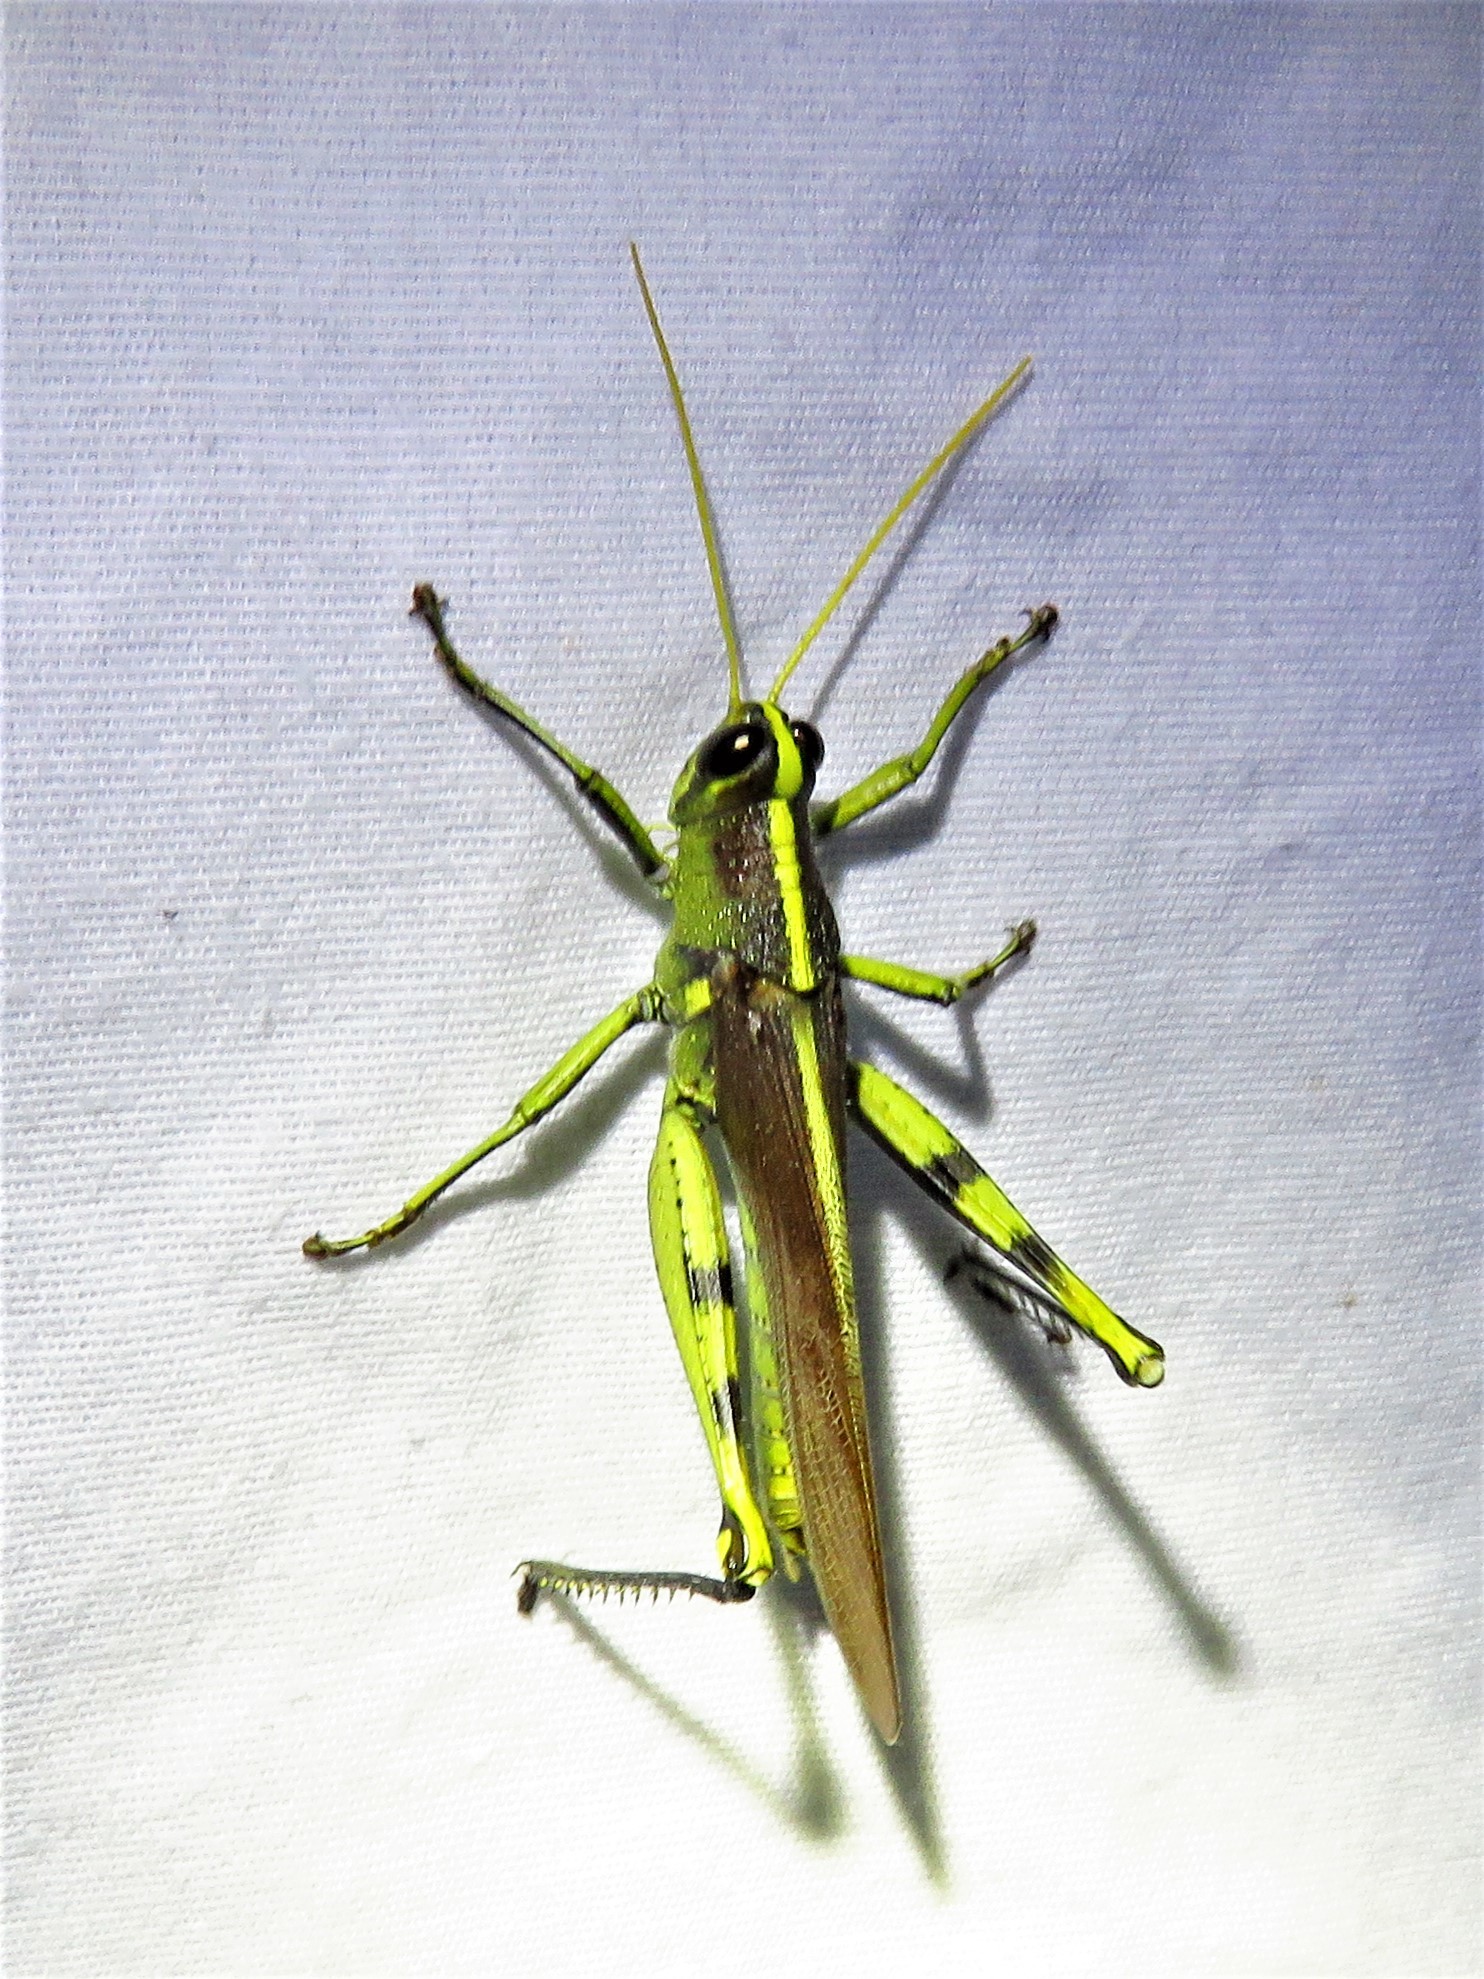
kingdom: Animalia
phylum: Arthropoda
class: Insecta
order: Orthoptera
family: Acrididae
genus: Schistocerca
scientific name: Schistocerca obscura
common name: Obscure bird grasshopper
